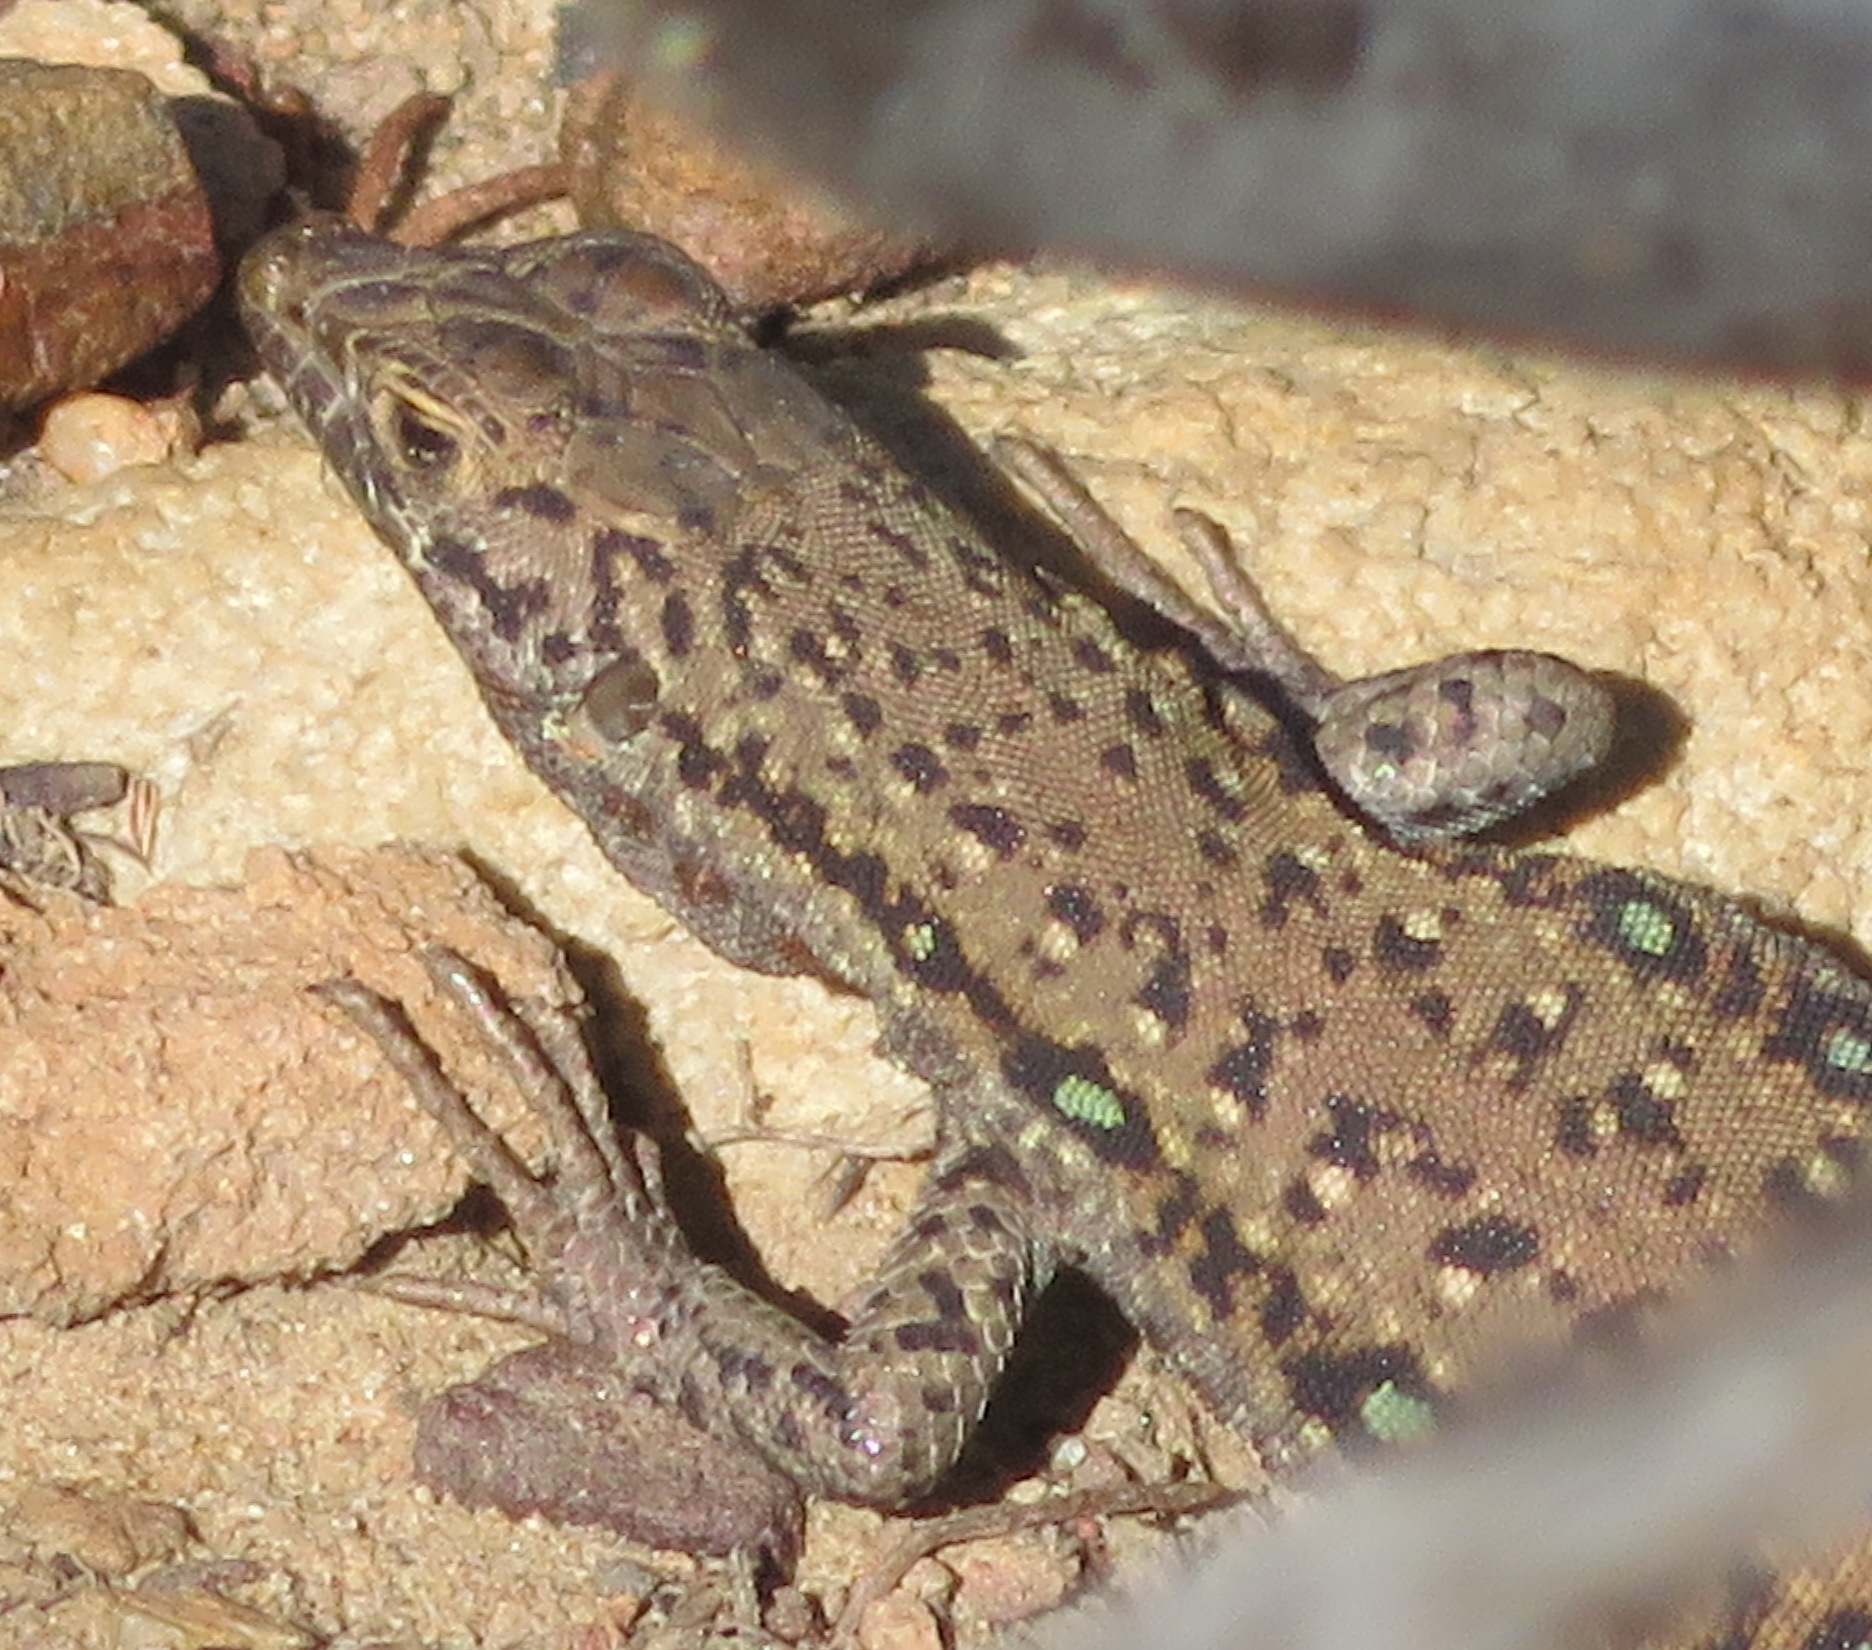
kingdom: Animalia
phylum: Chordata
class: Squamata
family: Lacertidae
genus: Pedioplanis
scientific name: Pedioplanis lineoocellata
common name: Spotted sand lizard
